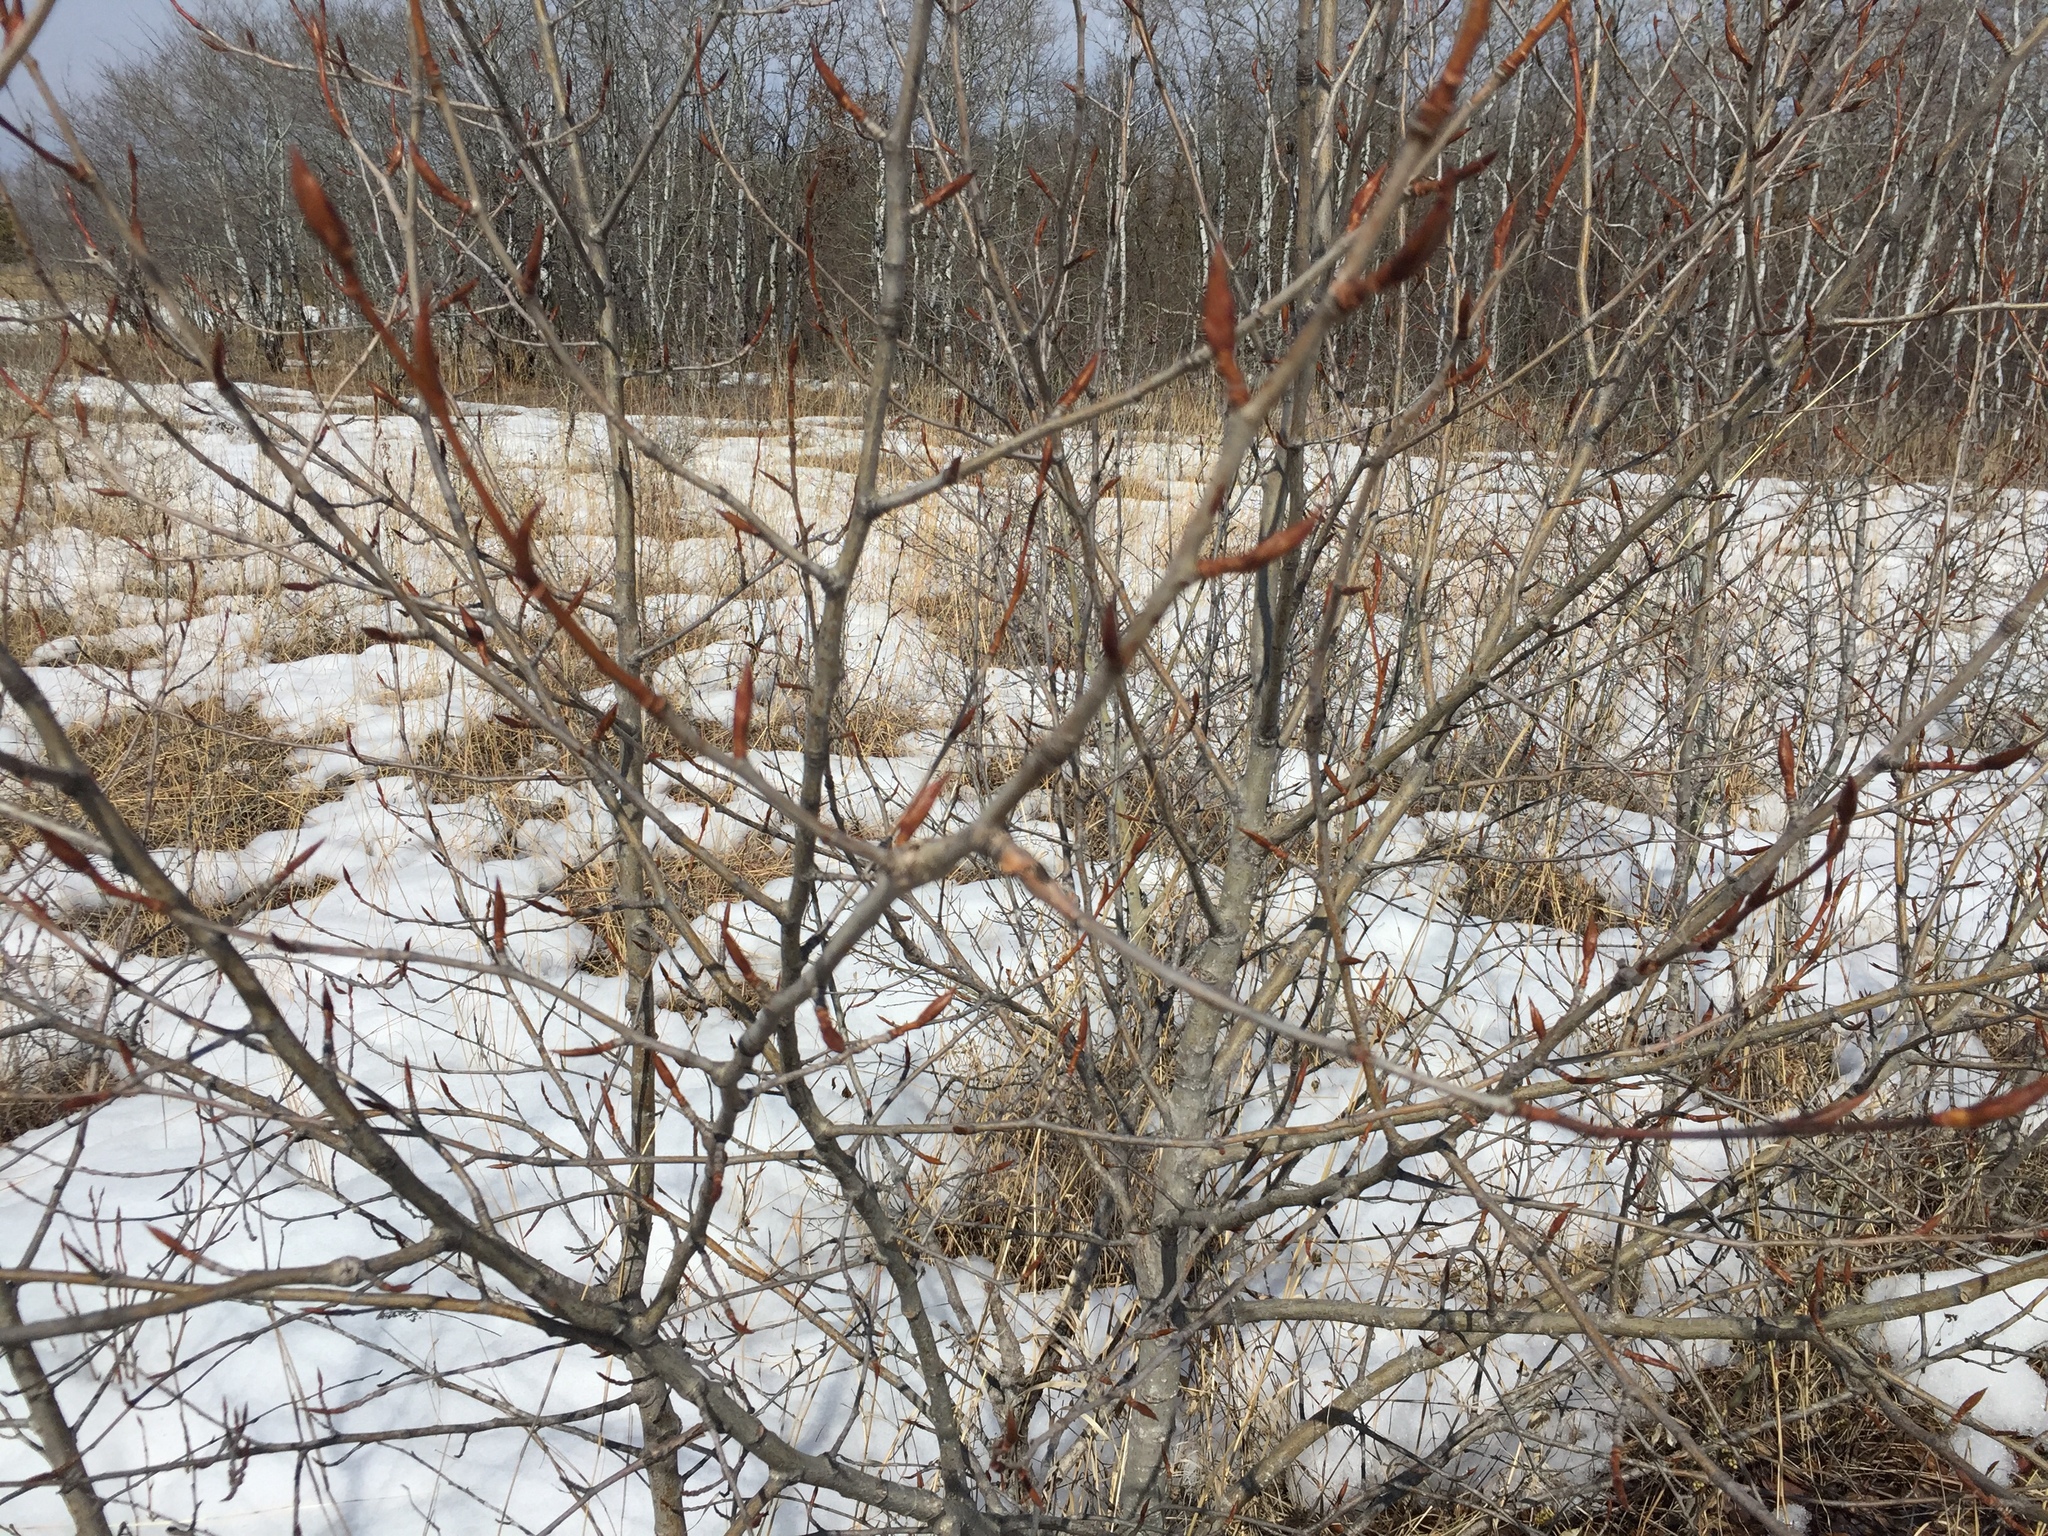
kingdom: Plantae
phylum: Tracheophyta
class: Magnoliopsida
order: Malpighiales
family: Salicaceae
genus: Populus
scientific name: Populus balsamifera
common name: Balsam poplar
